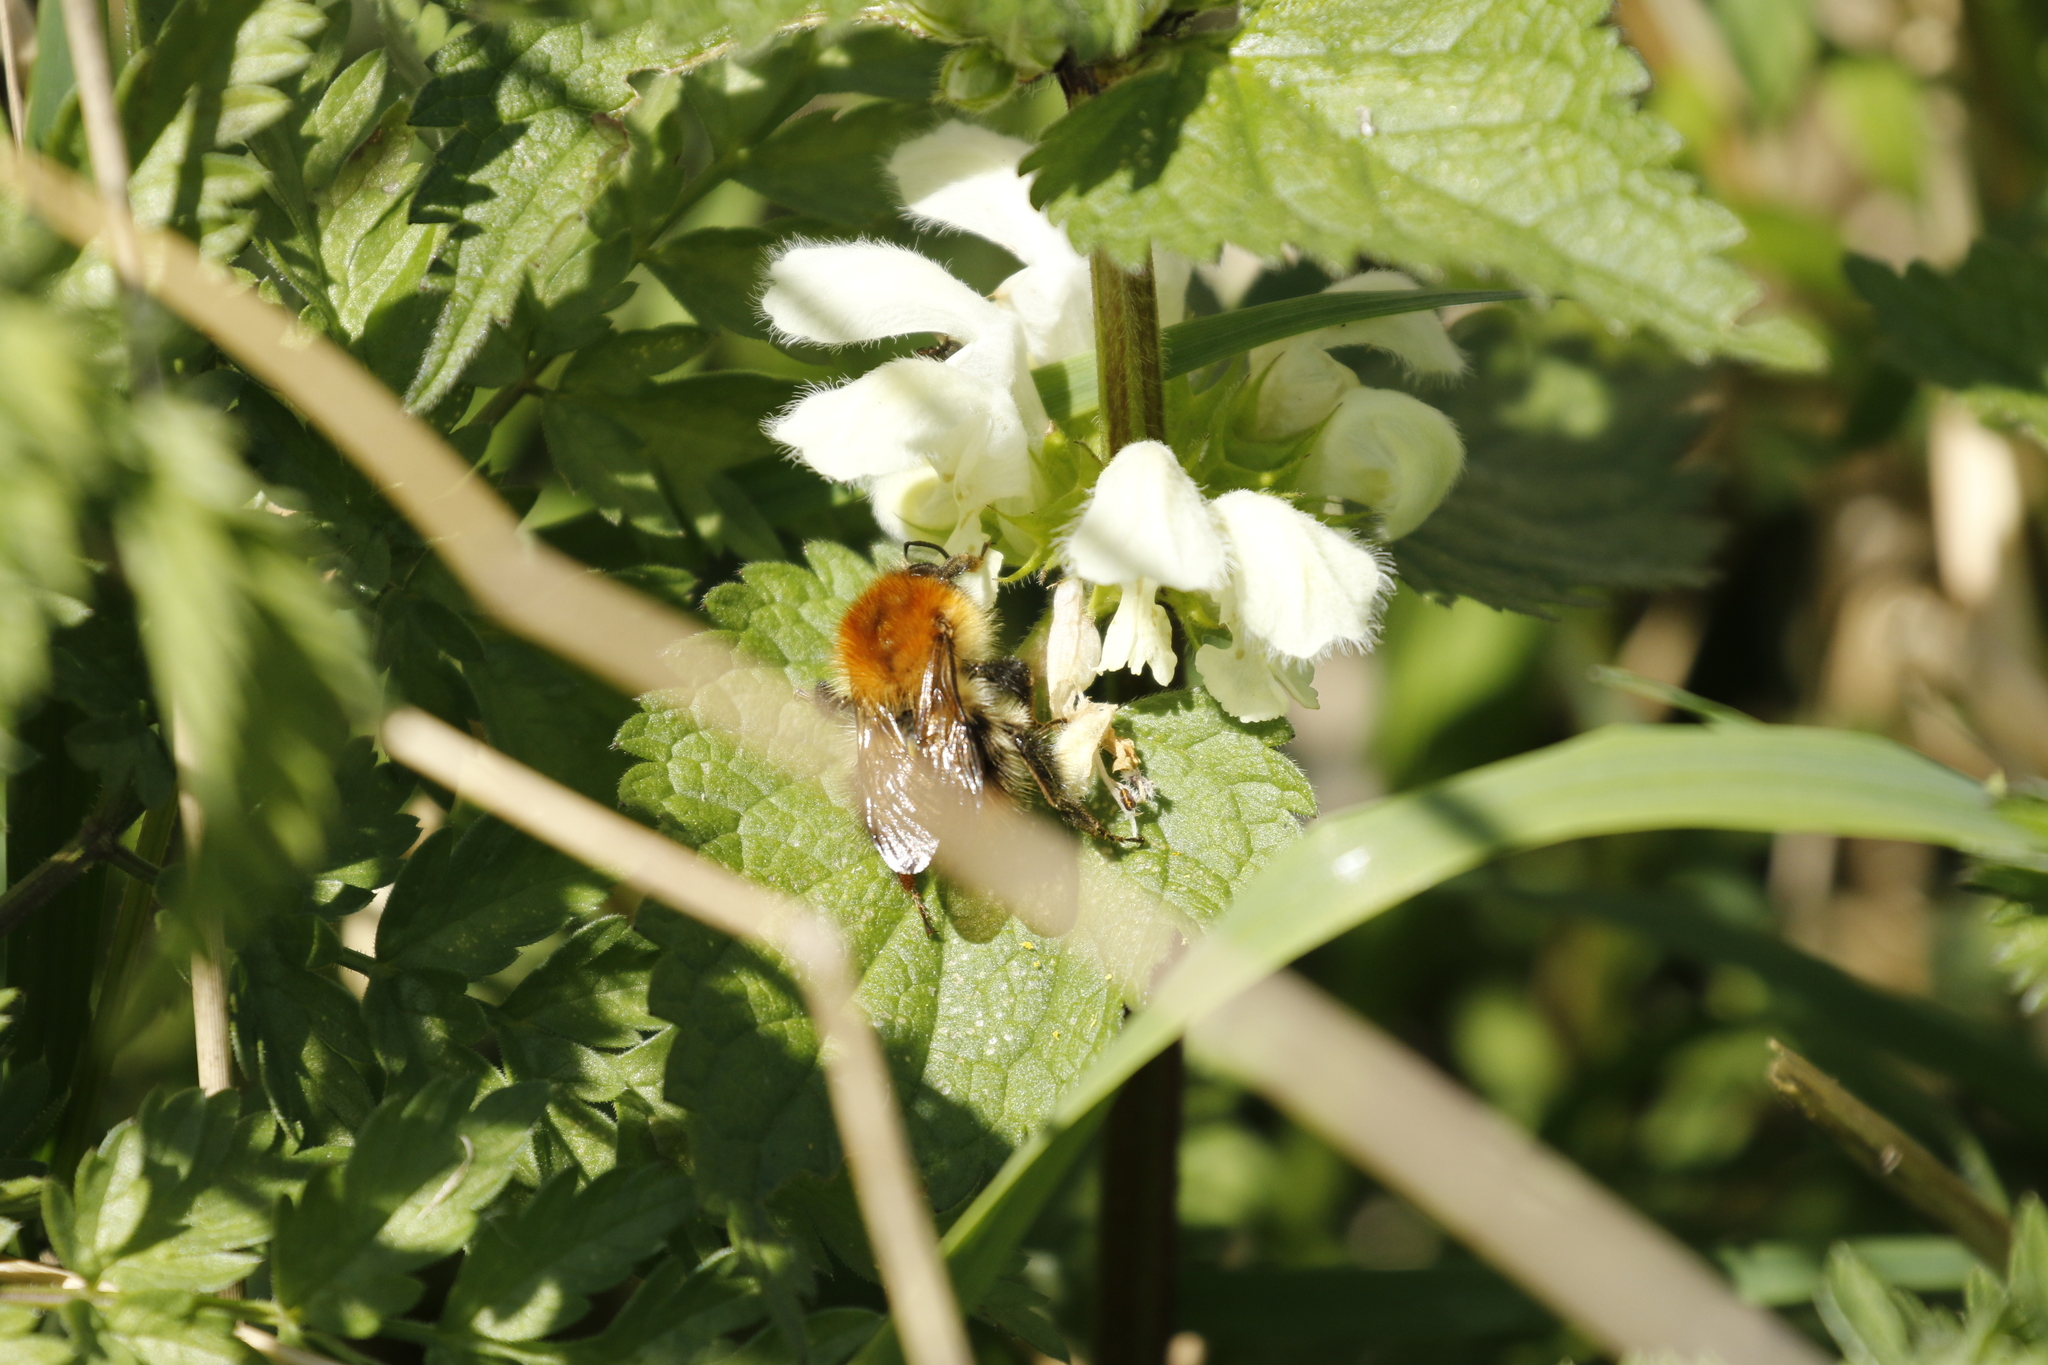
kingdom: Plantae
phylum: Tracheophyta
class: Magnoliopsida
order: Lamiales
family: Lamiaceae
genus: Lamium
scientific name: Lamium album
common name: White dead-nettle
